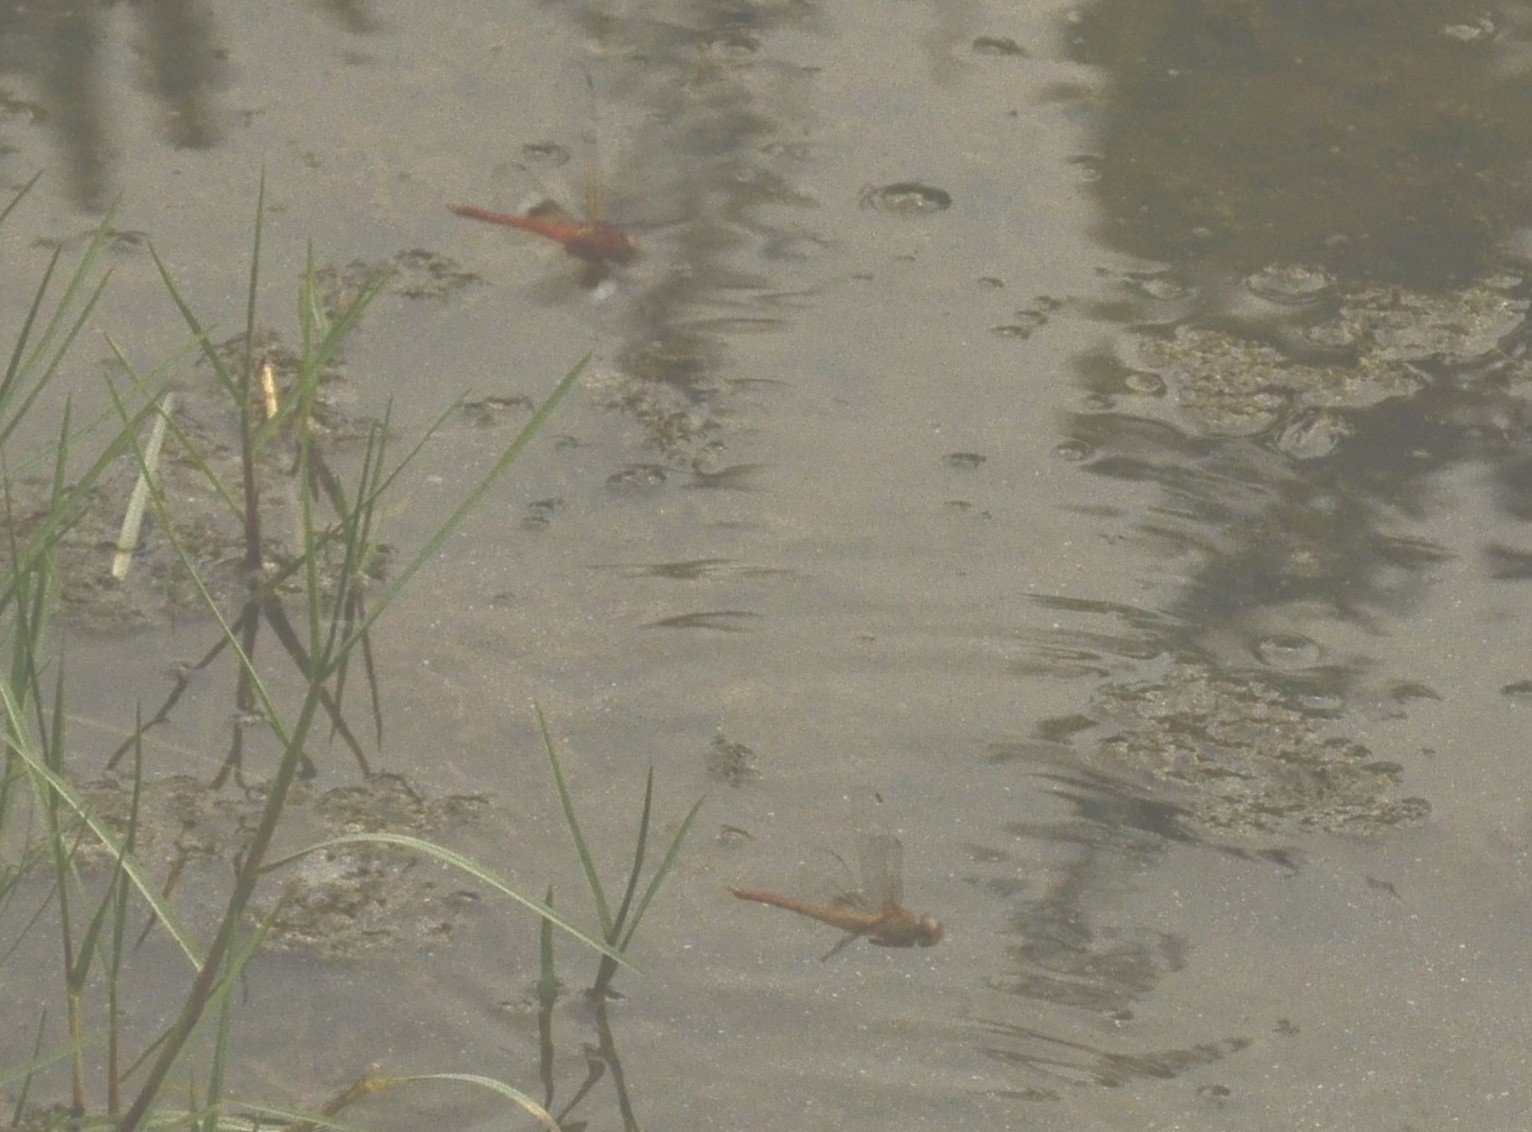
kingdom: Animalia
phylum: Arthropoda
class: Insecta
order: Odonata
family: Libellulidae
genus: Tholymis
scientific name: Tholymis tillarga
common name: Coral-tailed cloud wing
